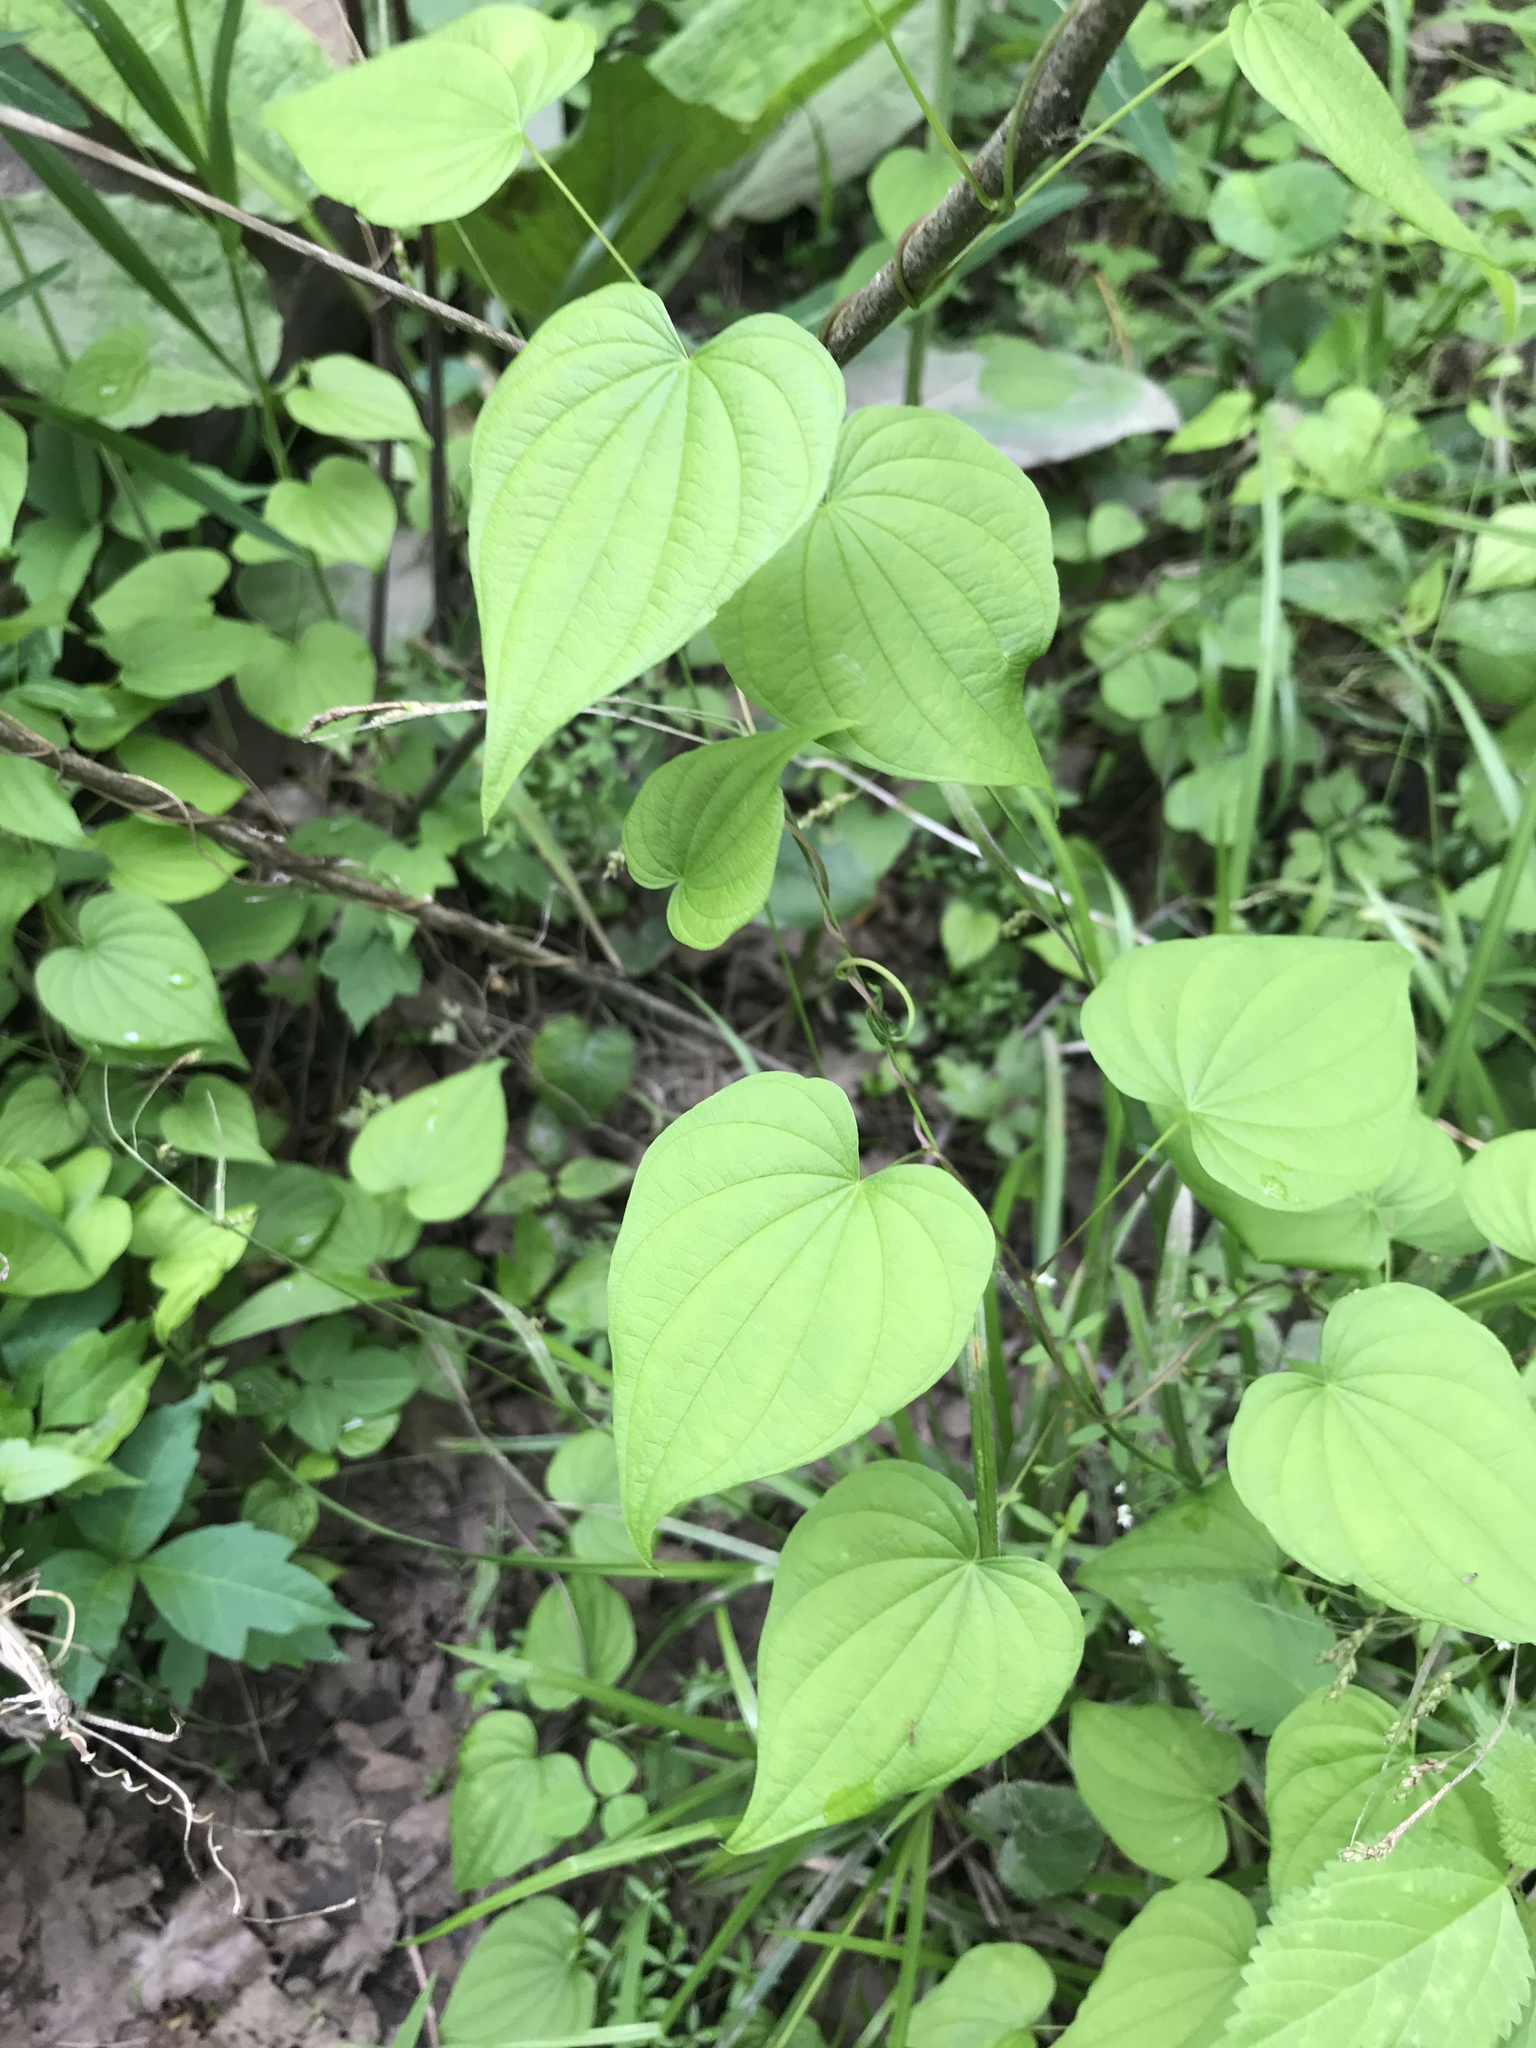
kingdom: Plantae
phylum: Tracheophyta
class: Liliopsida
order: Dioscoreales
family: Dioscoreaceae
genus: Dioscorea
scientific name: Dioscorea villosa
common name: Wild yam
